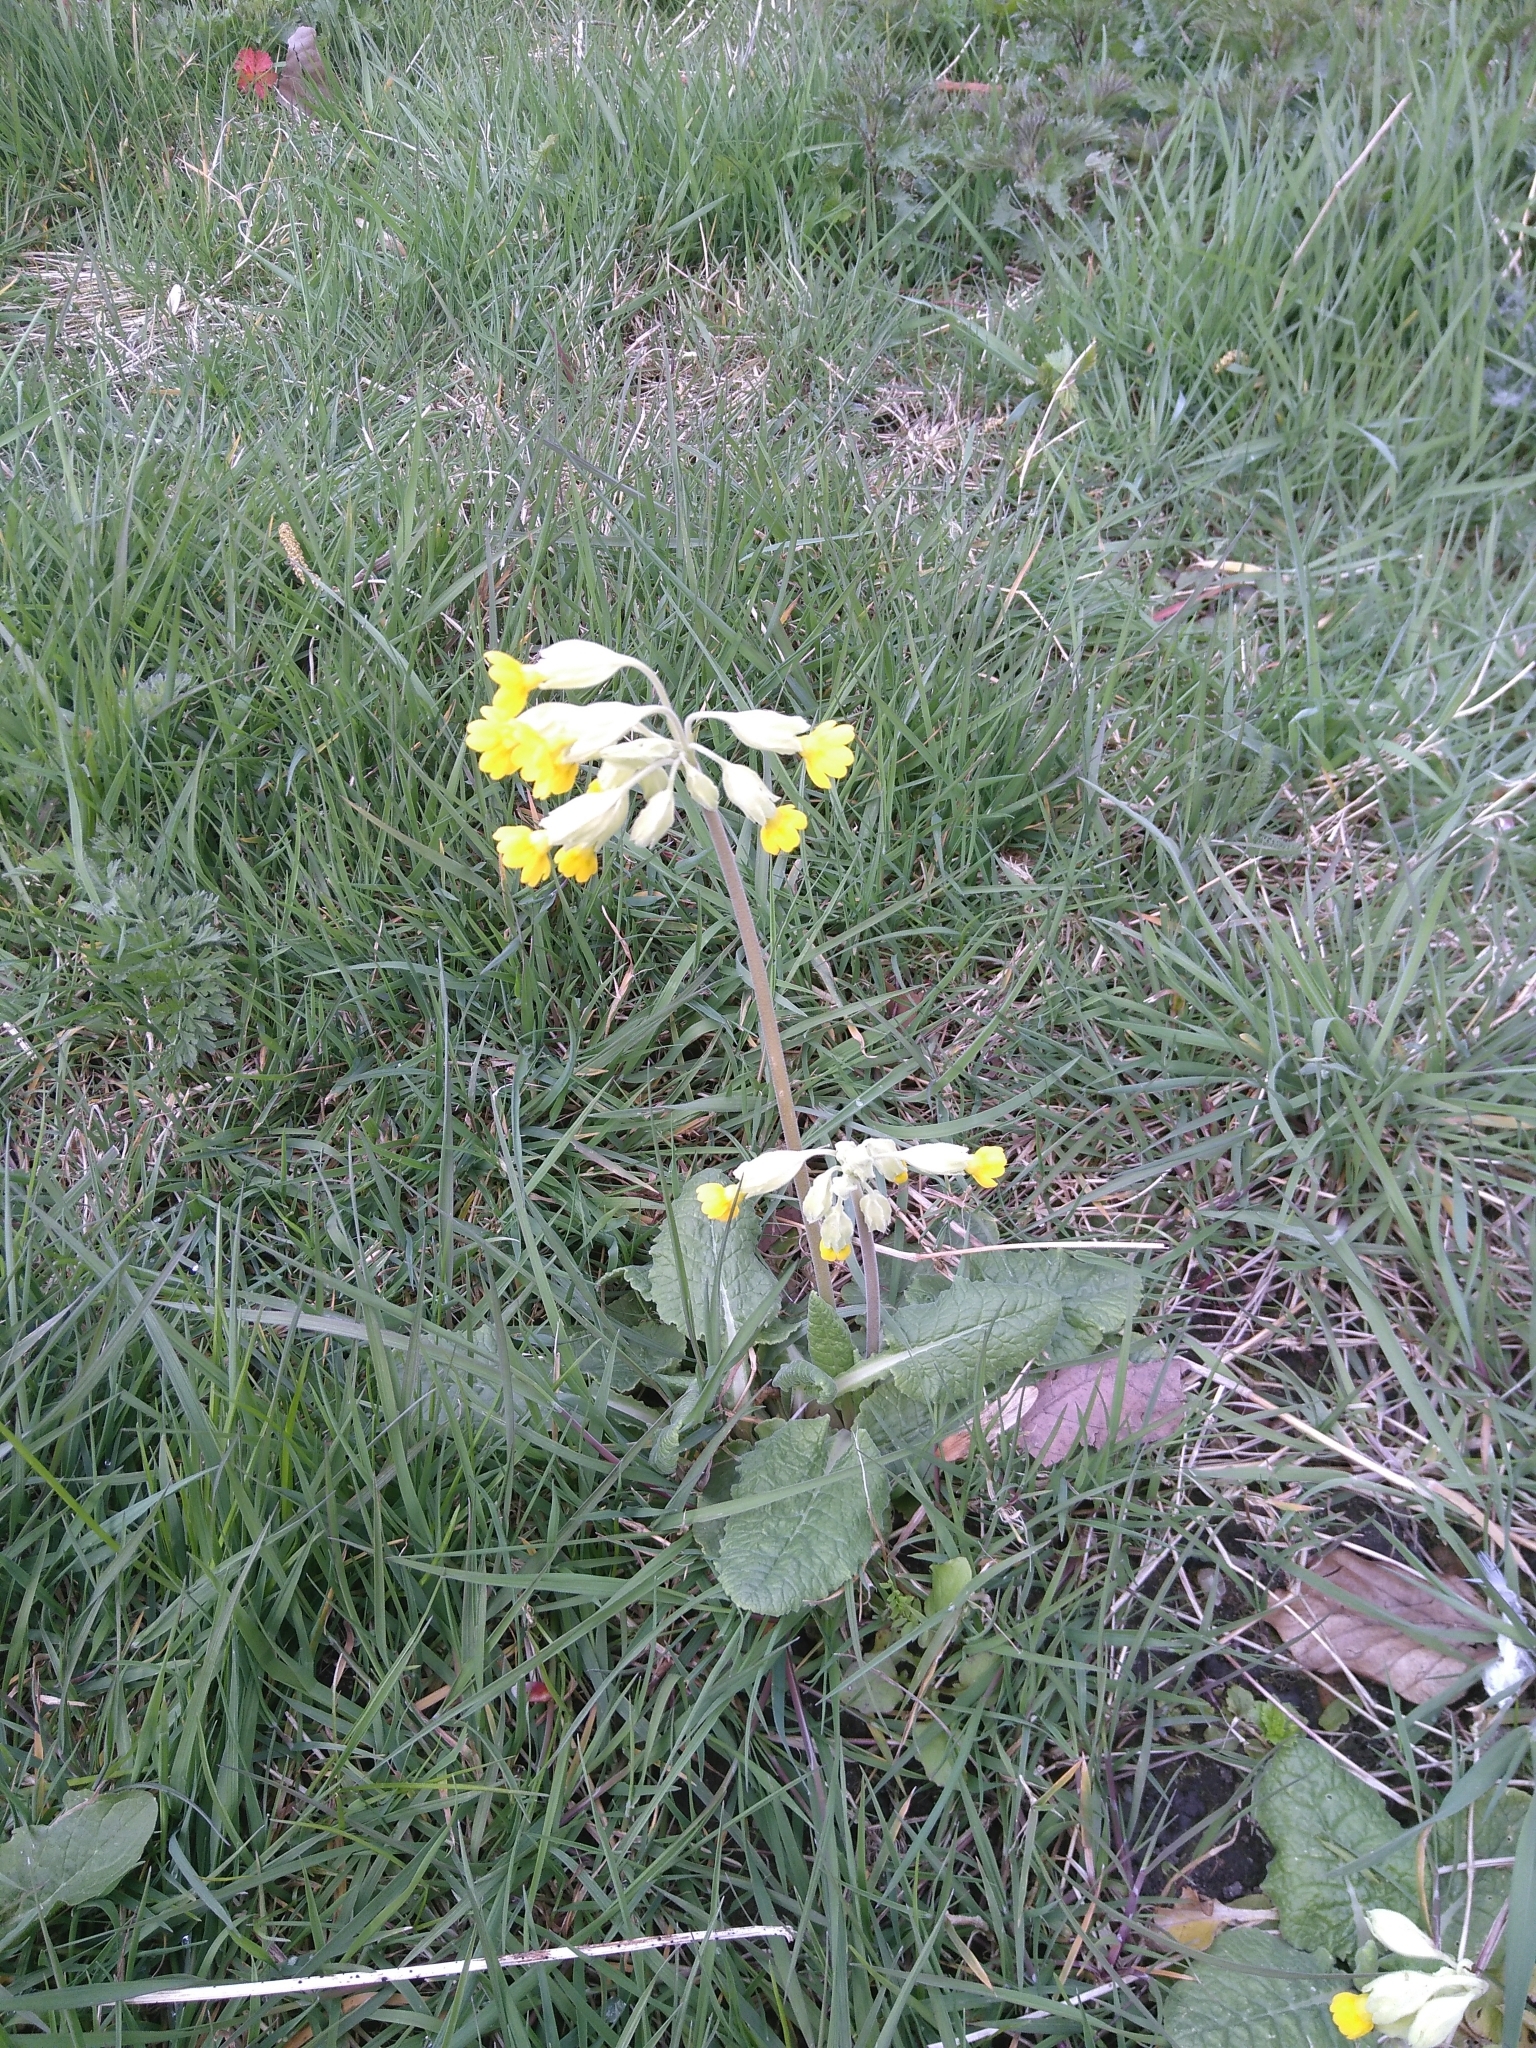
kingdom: Plantae
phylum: Tracheophyta
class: Magnoliopsida
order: Ericales
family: Primulaceae
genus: Primula
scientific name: Primula veris
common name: Cowslip
